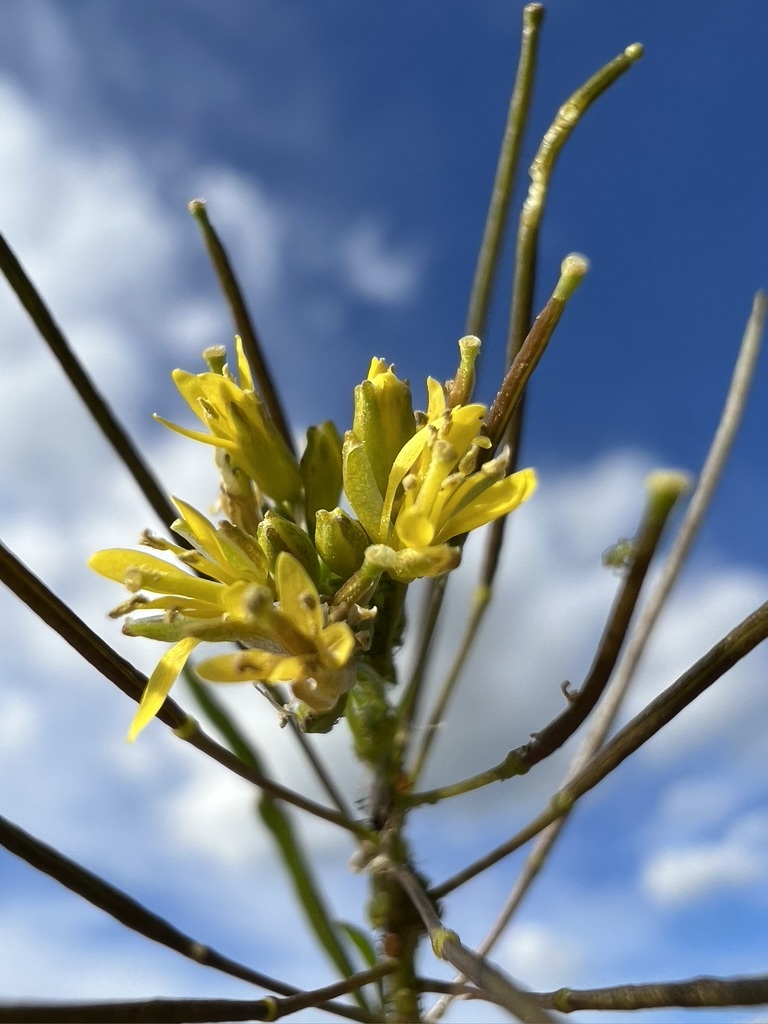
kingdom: Plantae
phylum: Tracheophyta
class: Magnoliopsida
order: Brassicales
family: Brassicaceae
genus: Sisymbrium
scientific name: Sisymbrium irio
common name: London rocket
